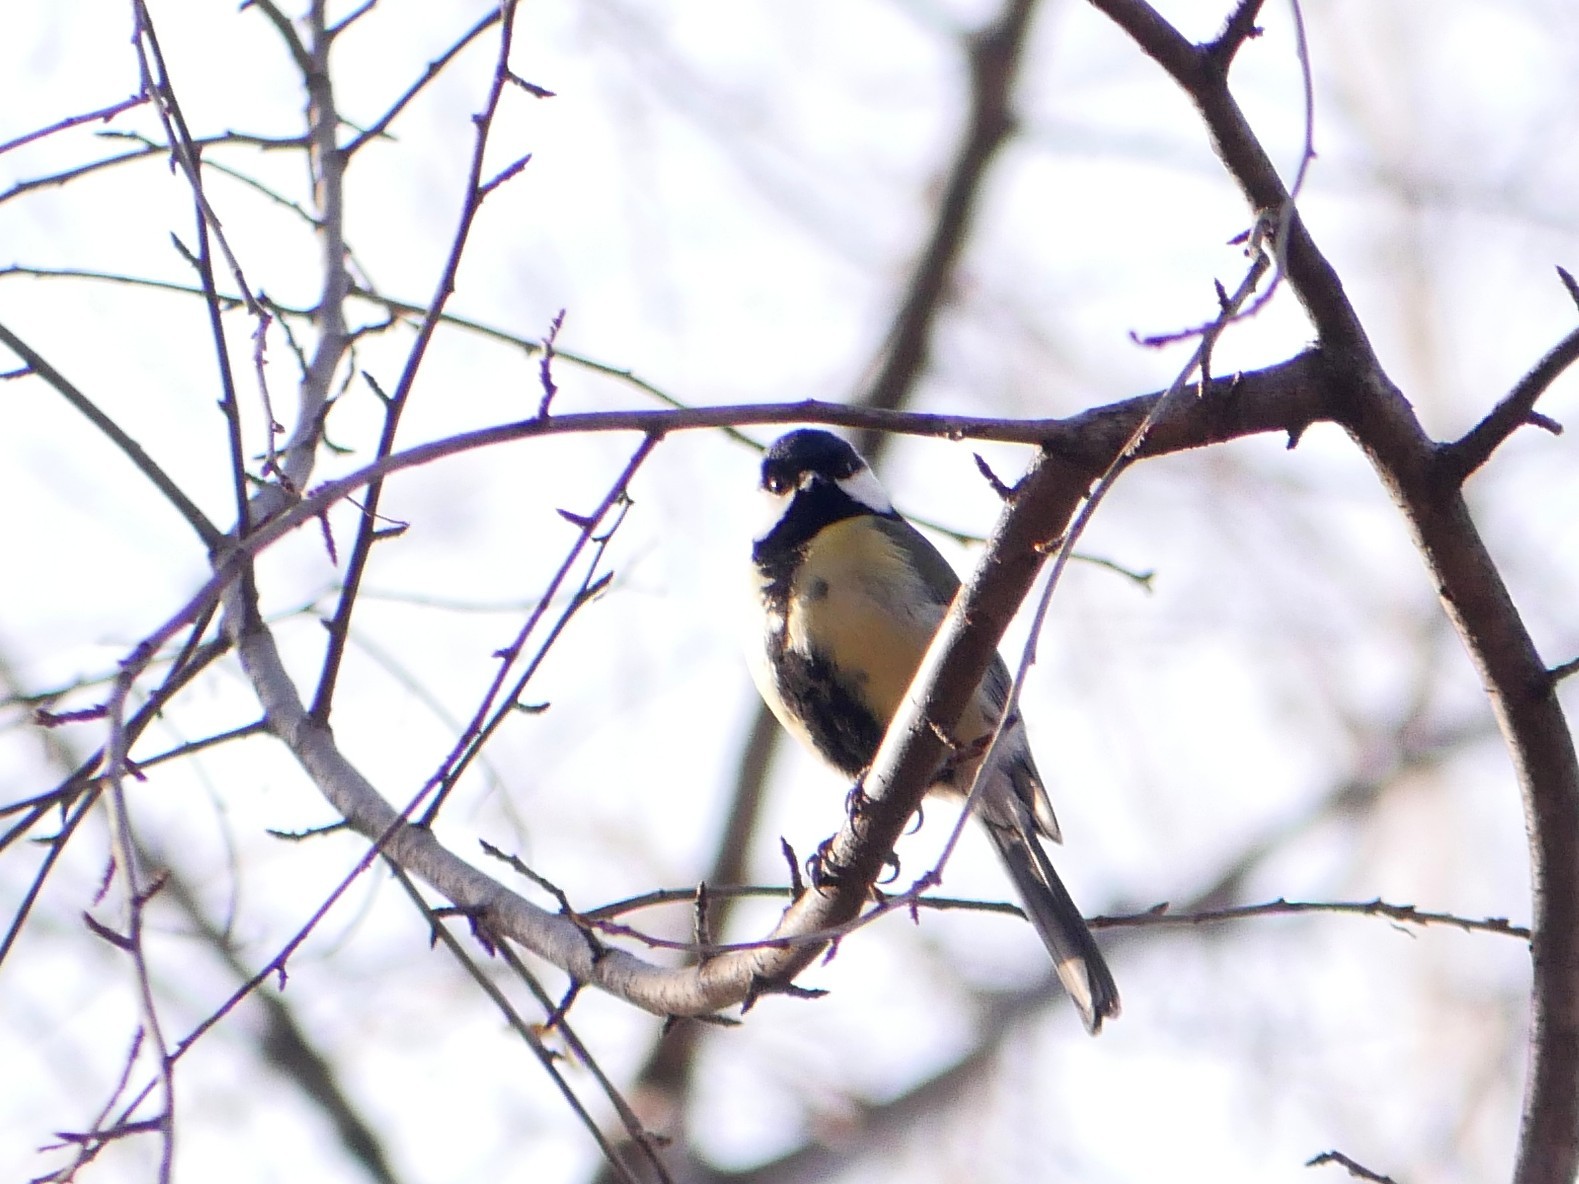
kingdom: Animalia
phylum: Chordata
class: Aves
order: Passeriformes
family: Paridae
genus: Parus
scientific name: Parus major
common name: Great tit
